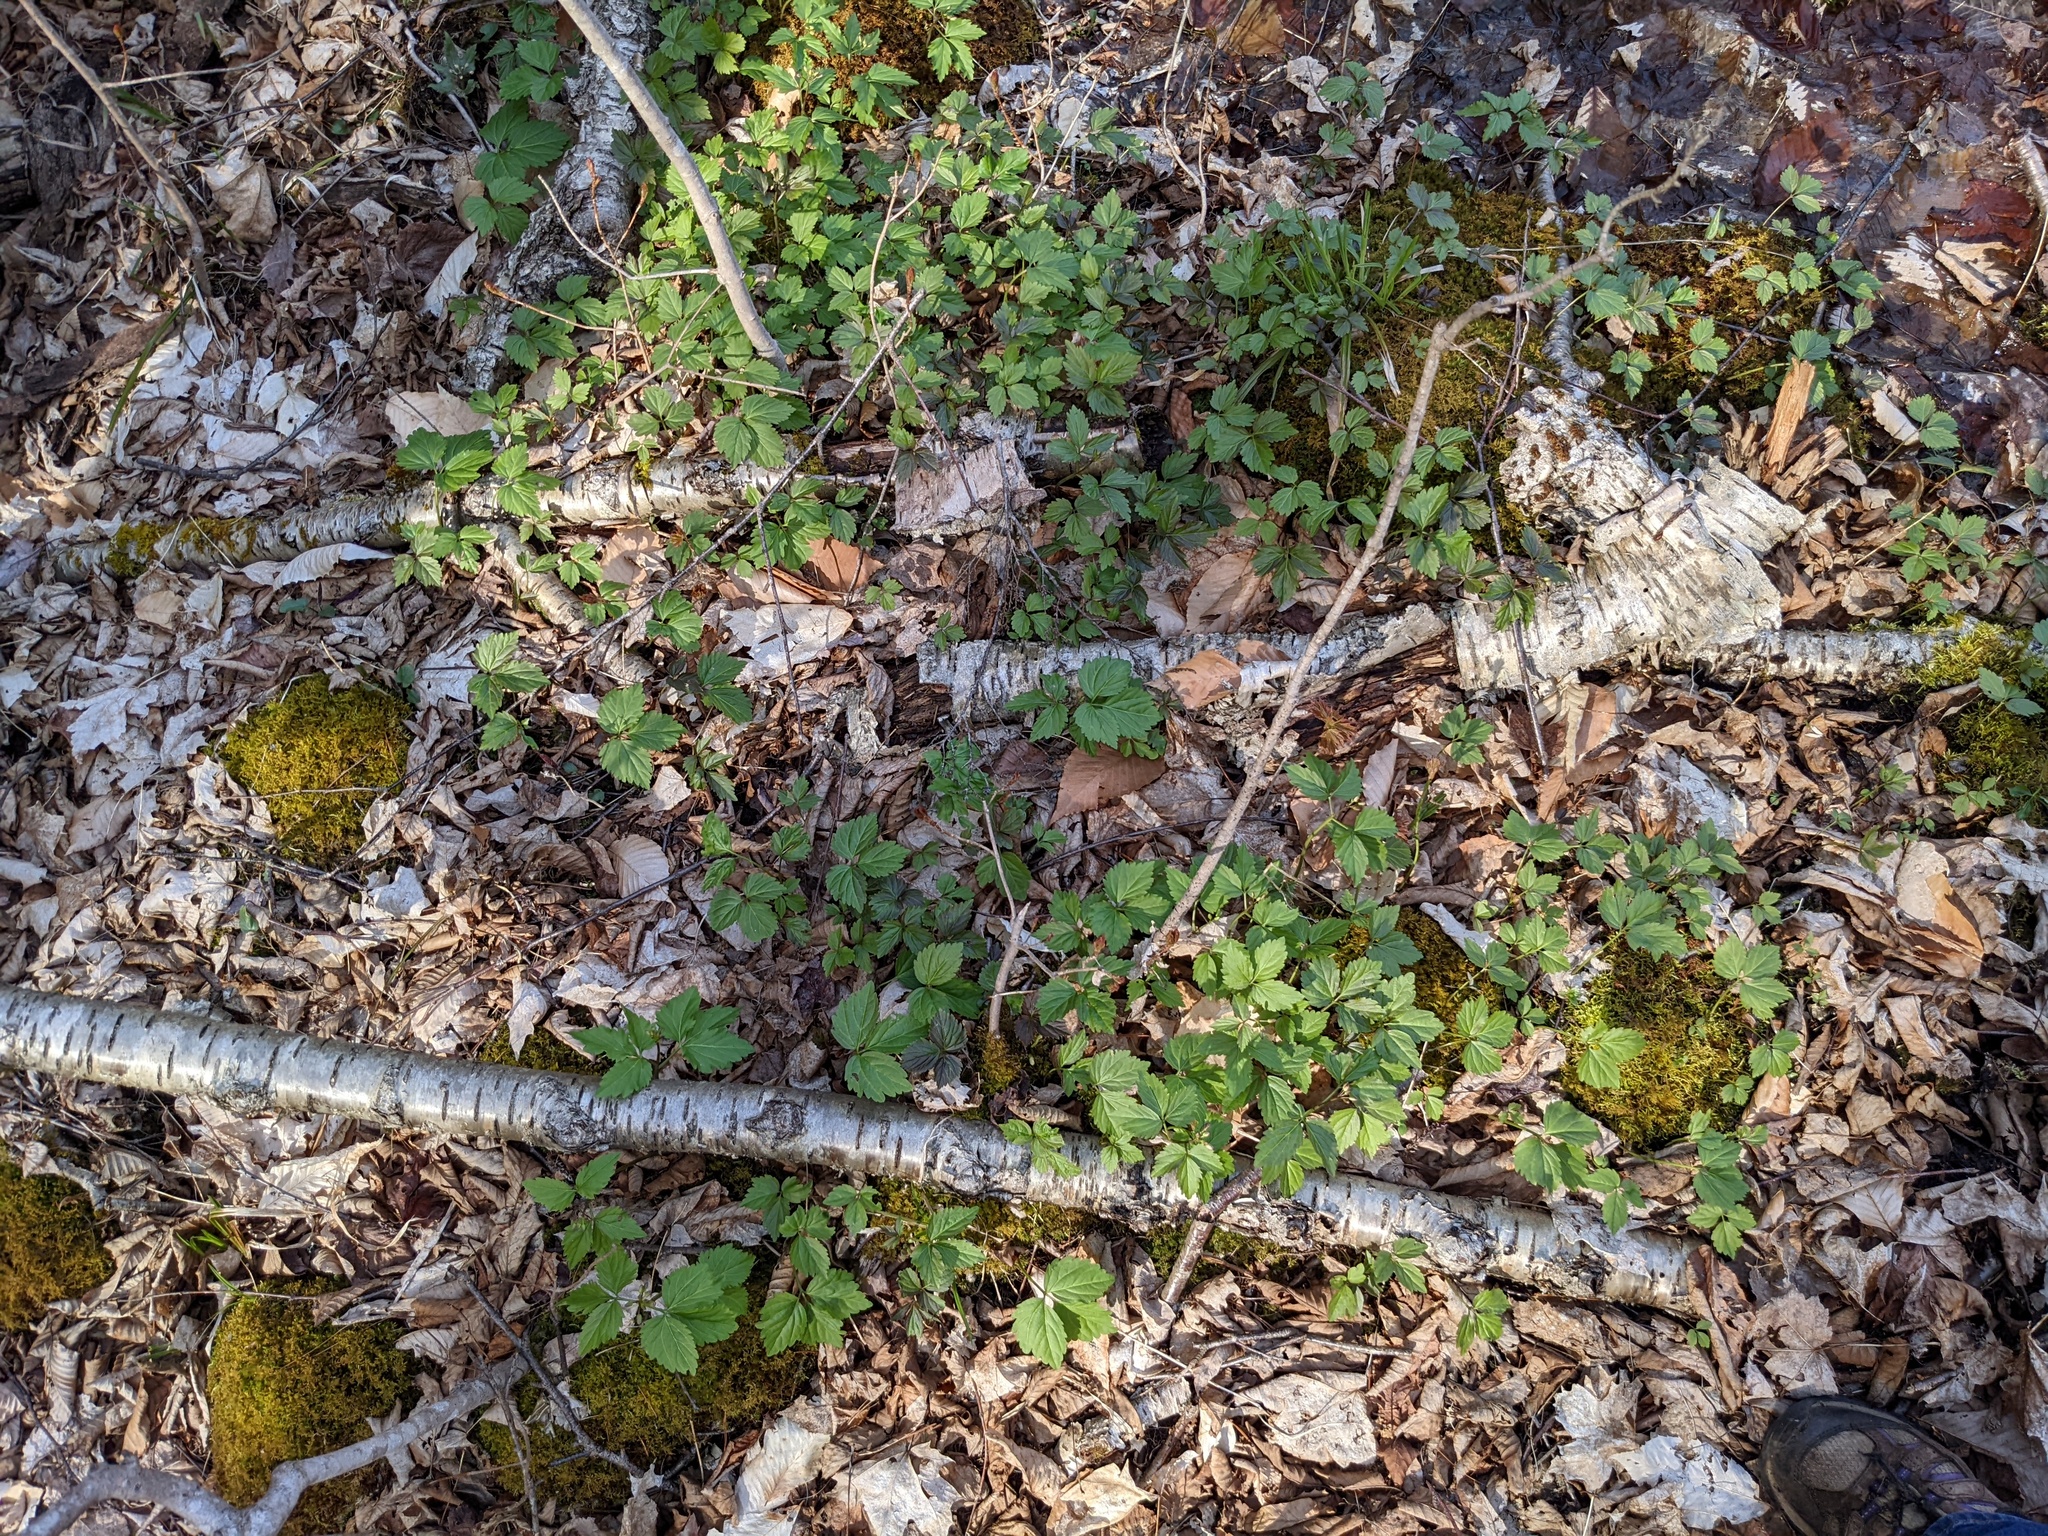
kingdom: Plantae
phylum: Tracheophyta
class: Magnoliopsida
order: Brassicales
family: Brassicaceae
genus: Cardamine
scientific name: Cardamine diphylla
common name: Broad-leaved toothwort
